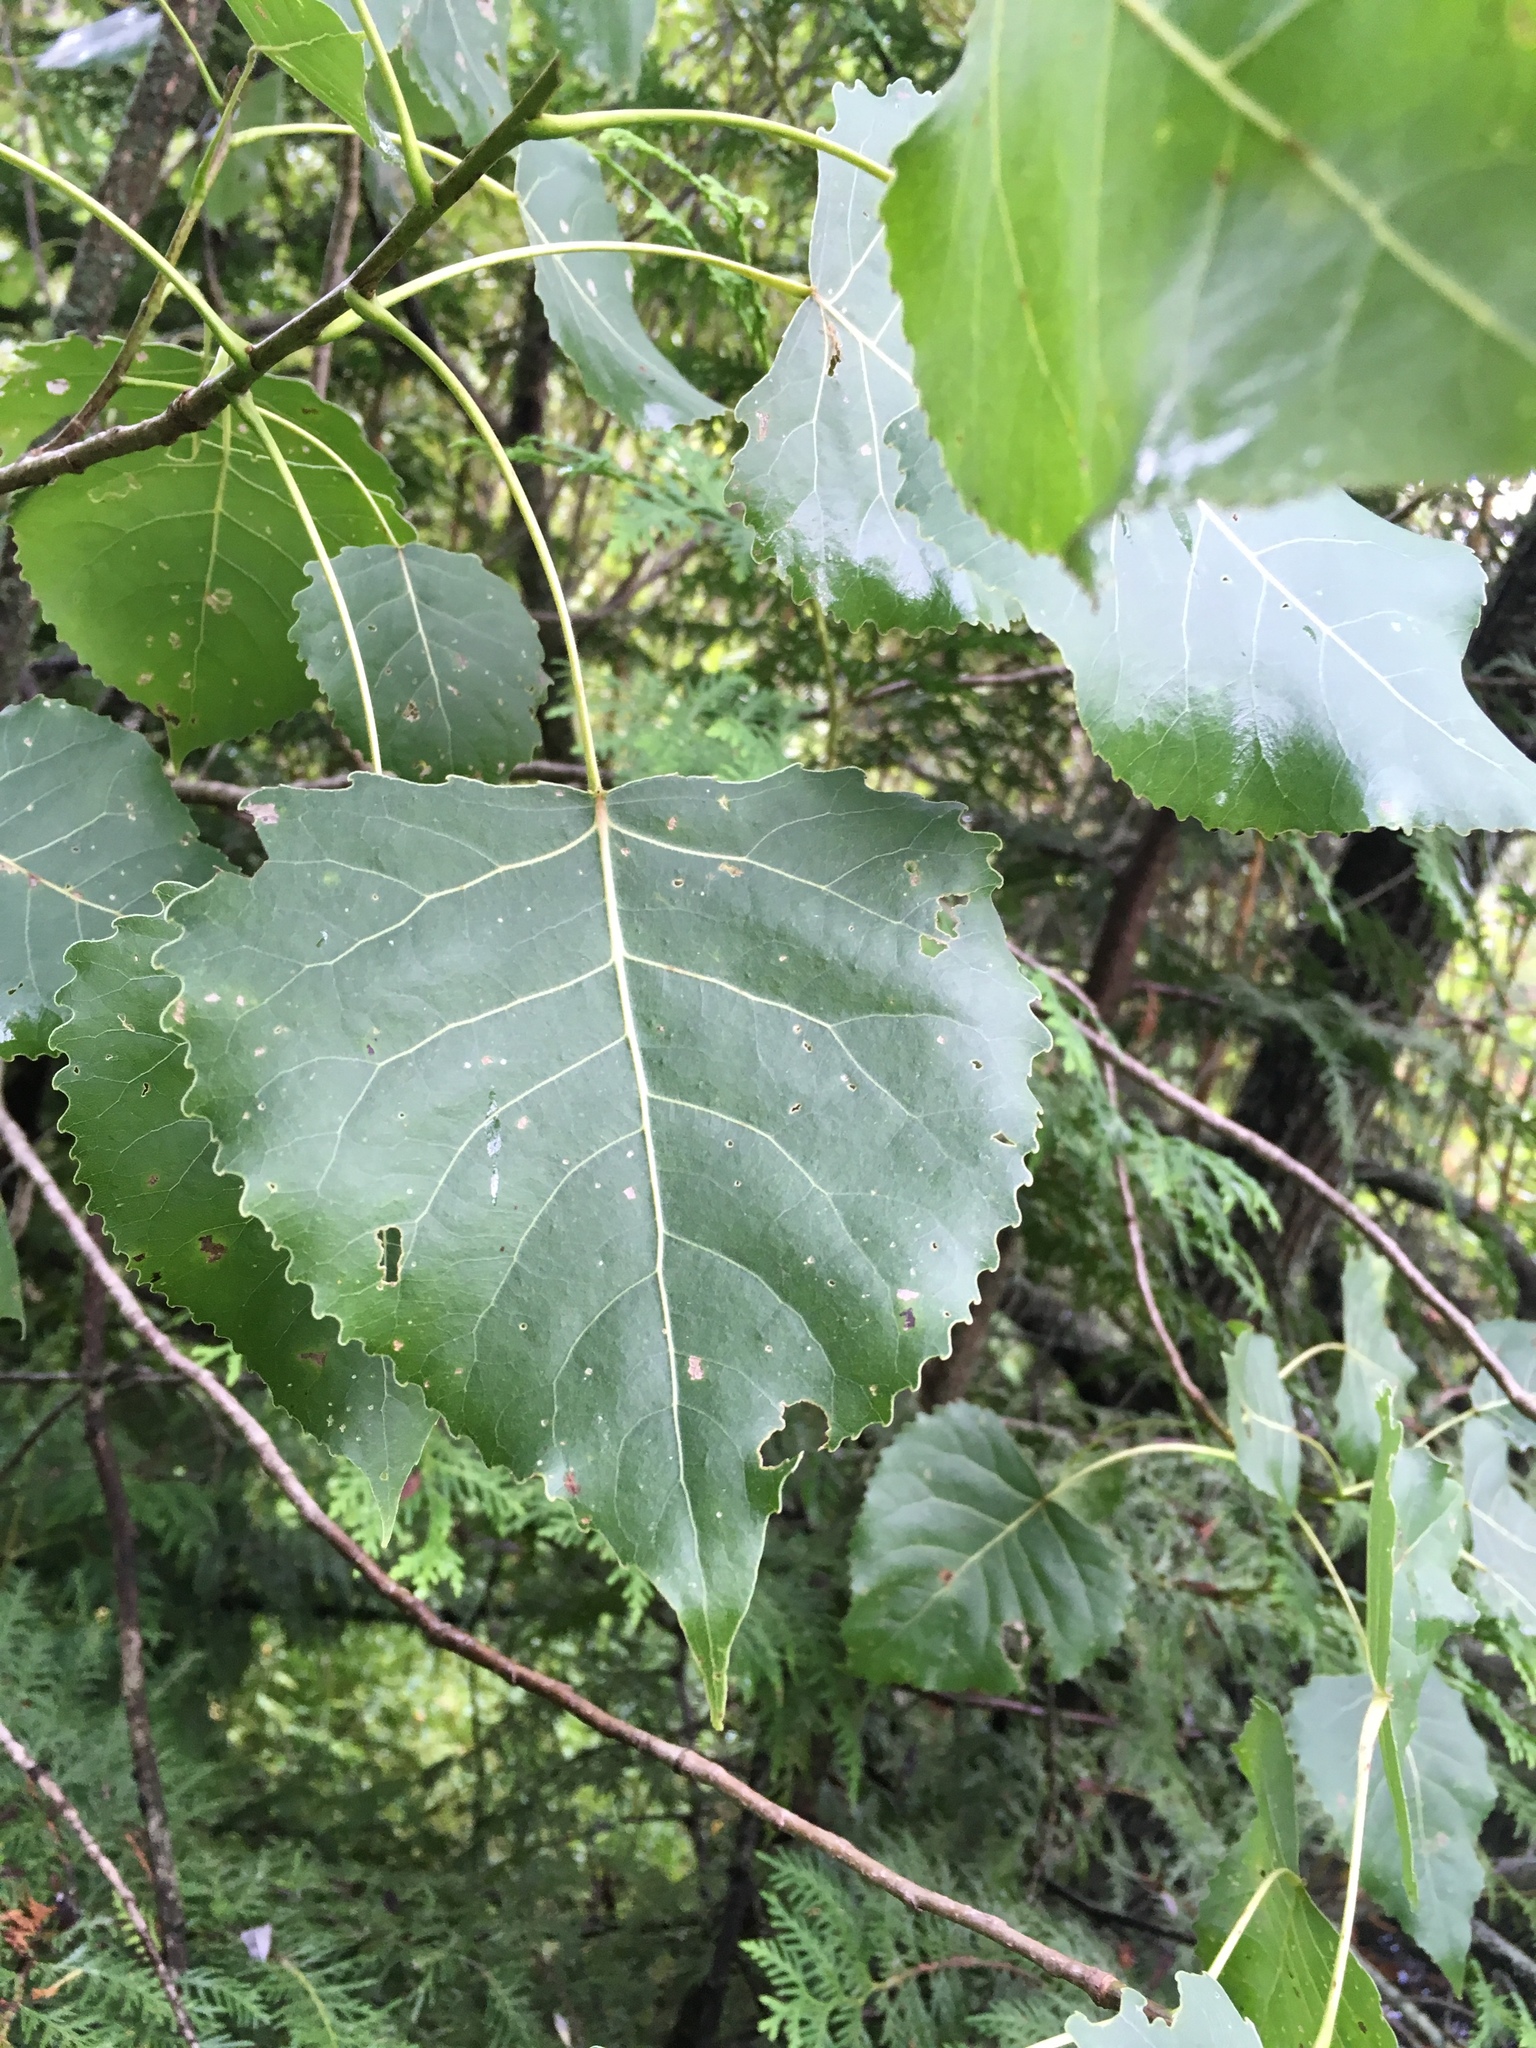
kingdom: Plantae
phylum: Tracheophyta
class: Magnoliopsida
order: Malpighiales
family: Salicaceae
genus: Populus
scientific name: Populus deltoides
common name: Eastern cottonwood
